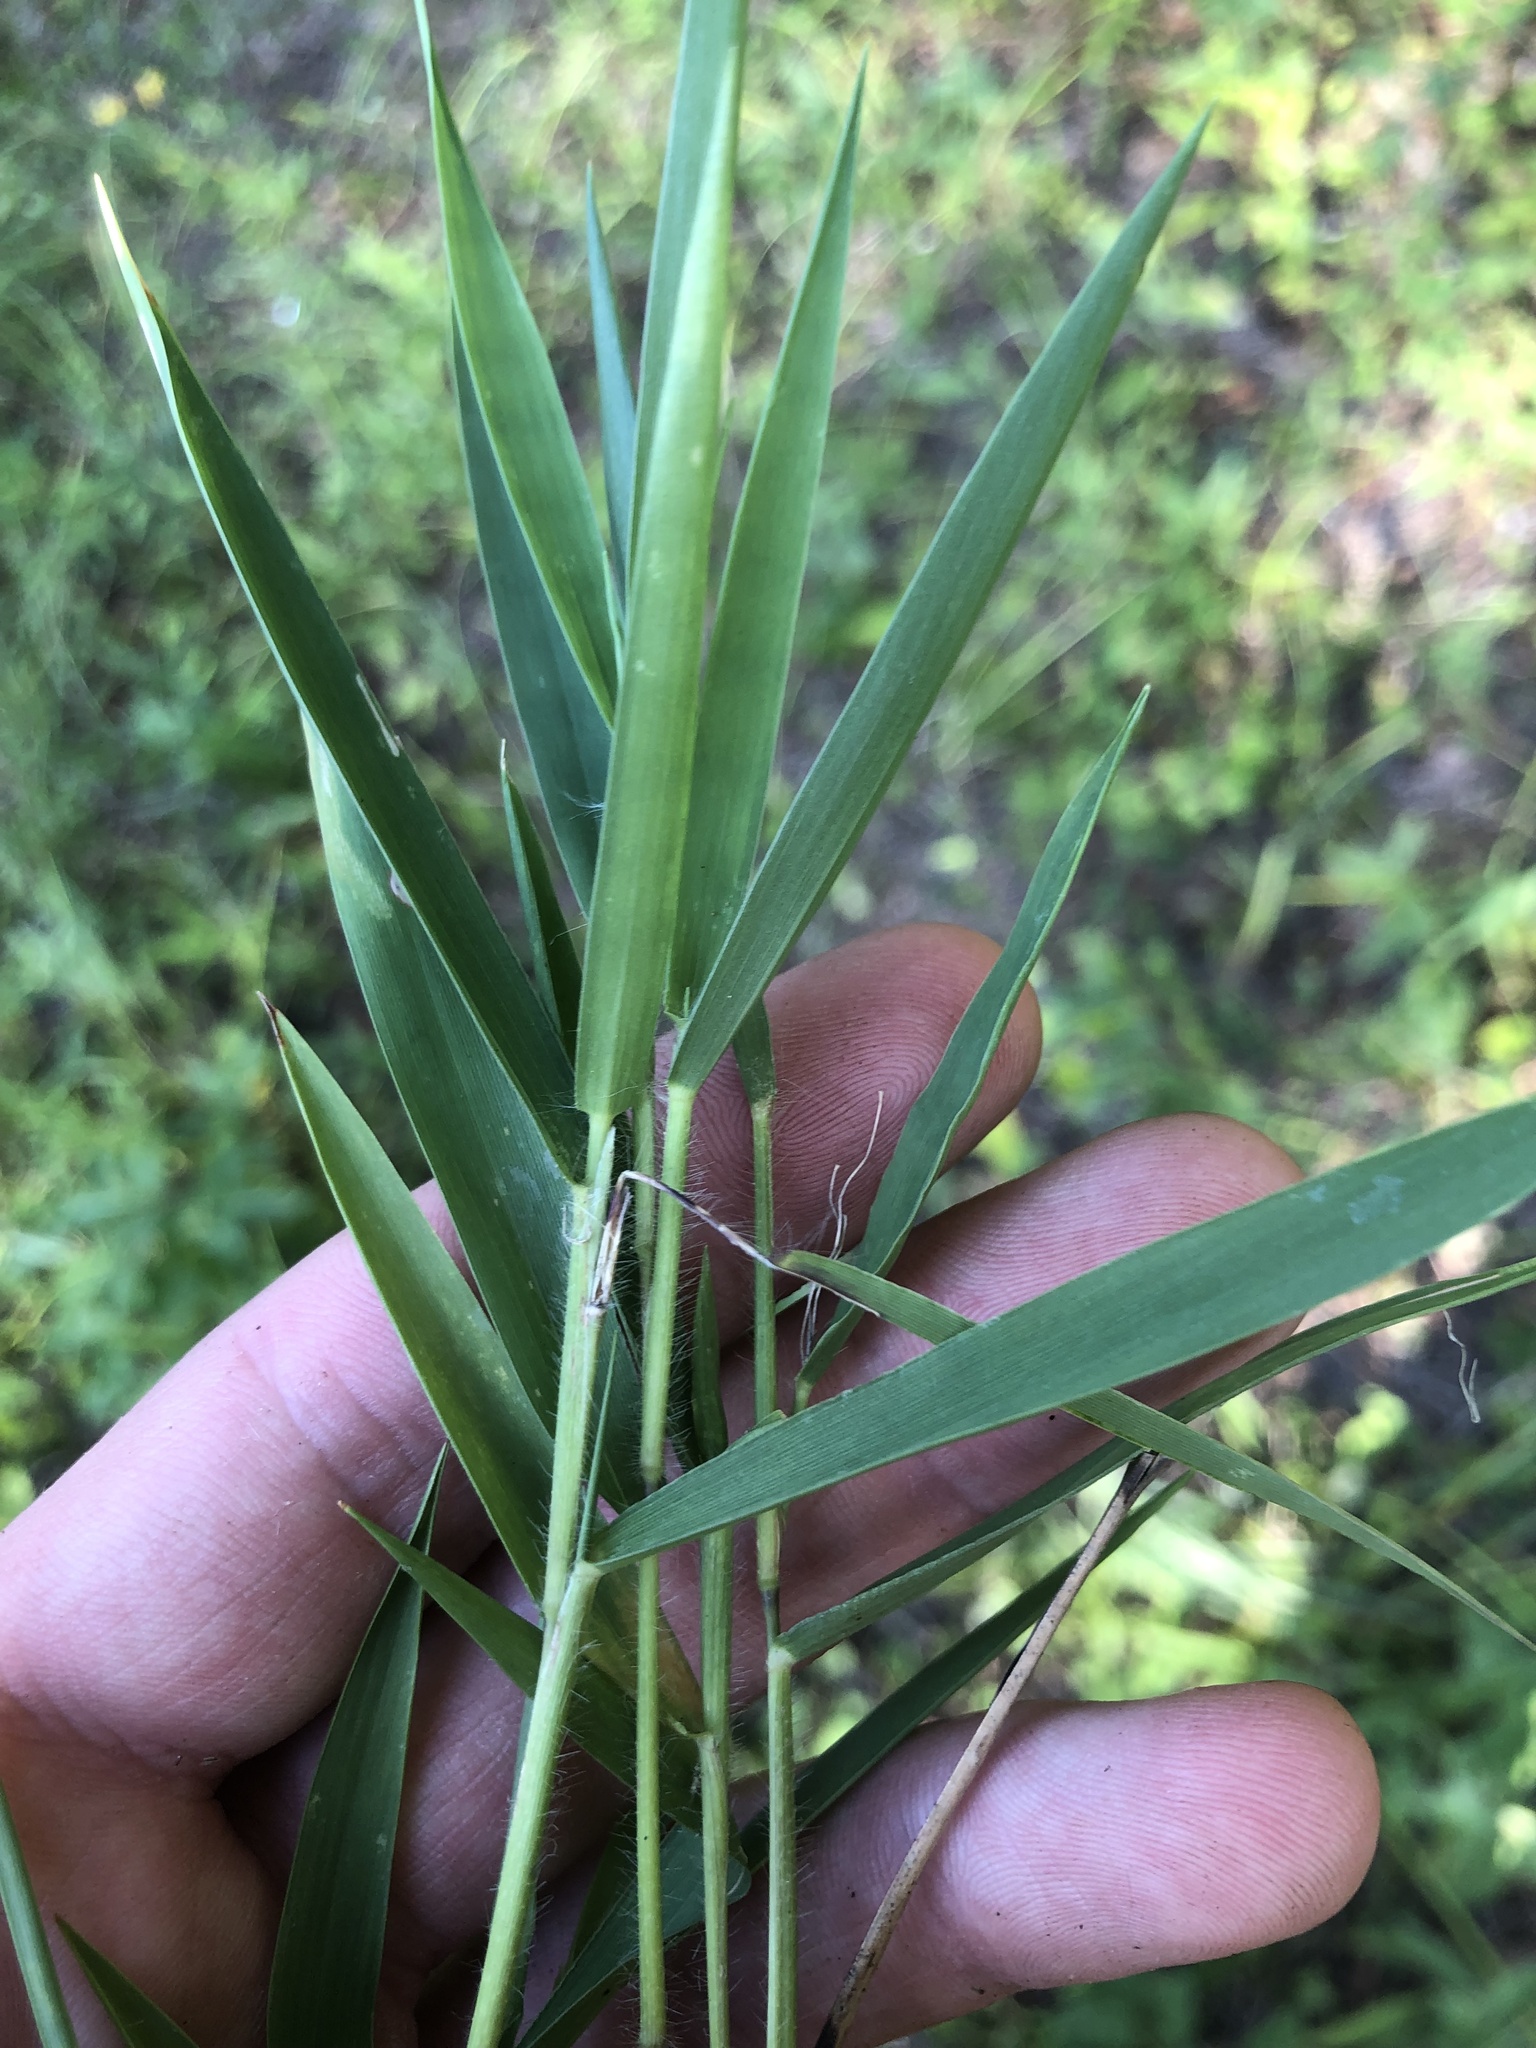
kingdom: Plantae
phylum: Tracheophyta
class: Liliopsida
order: Poales
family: Poaceae
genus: Dichanthelium
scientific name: Dichanthelium scribnerianum
